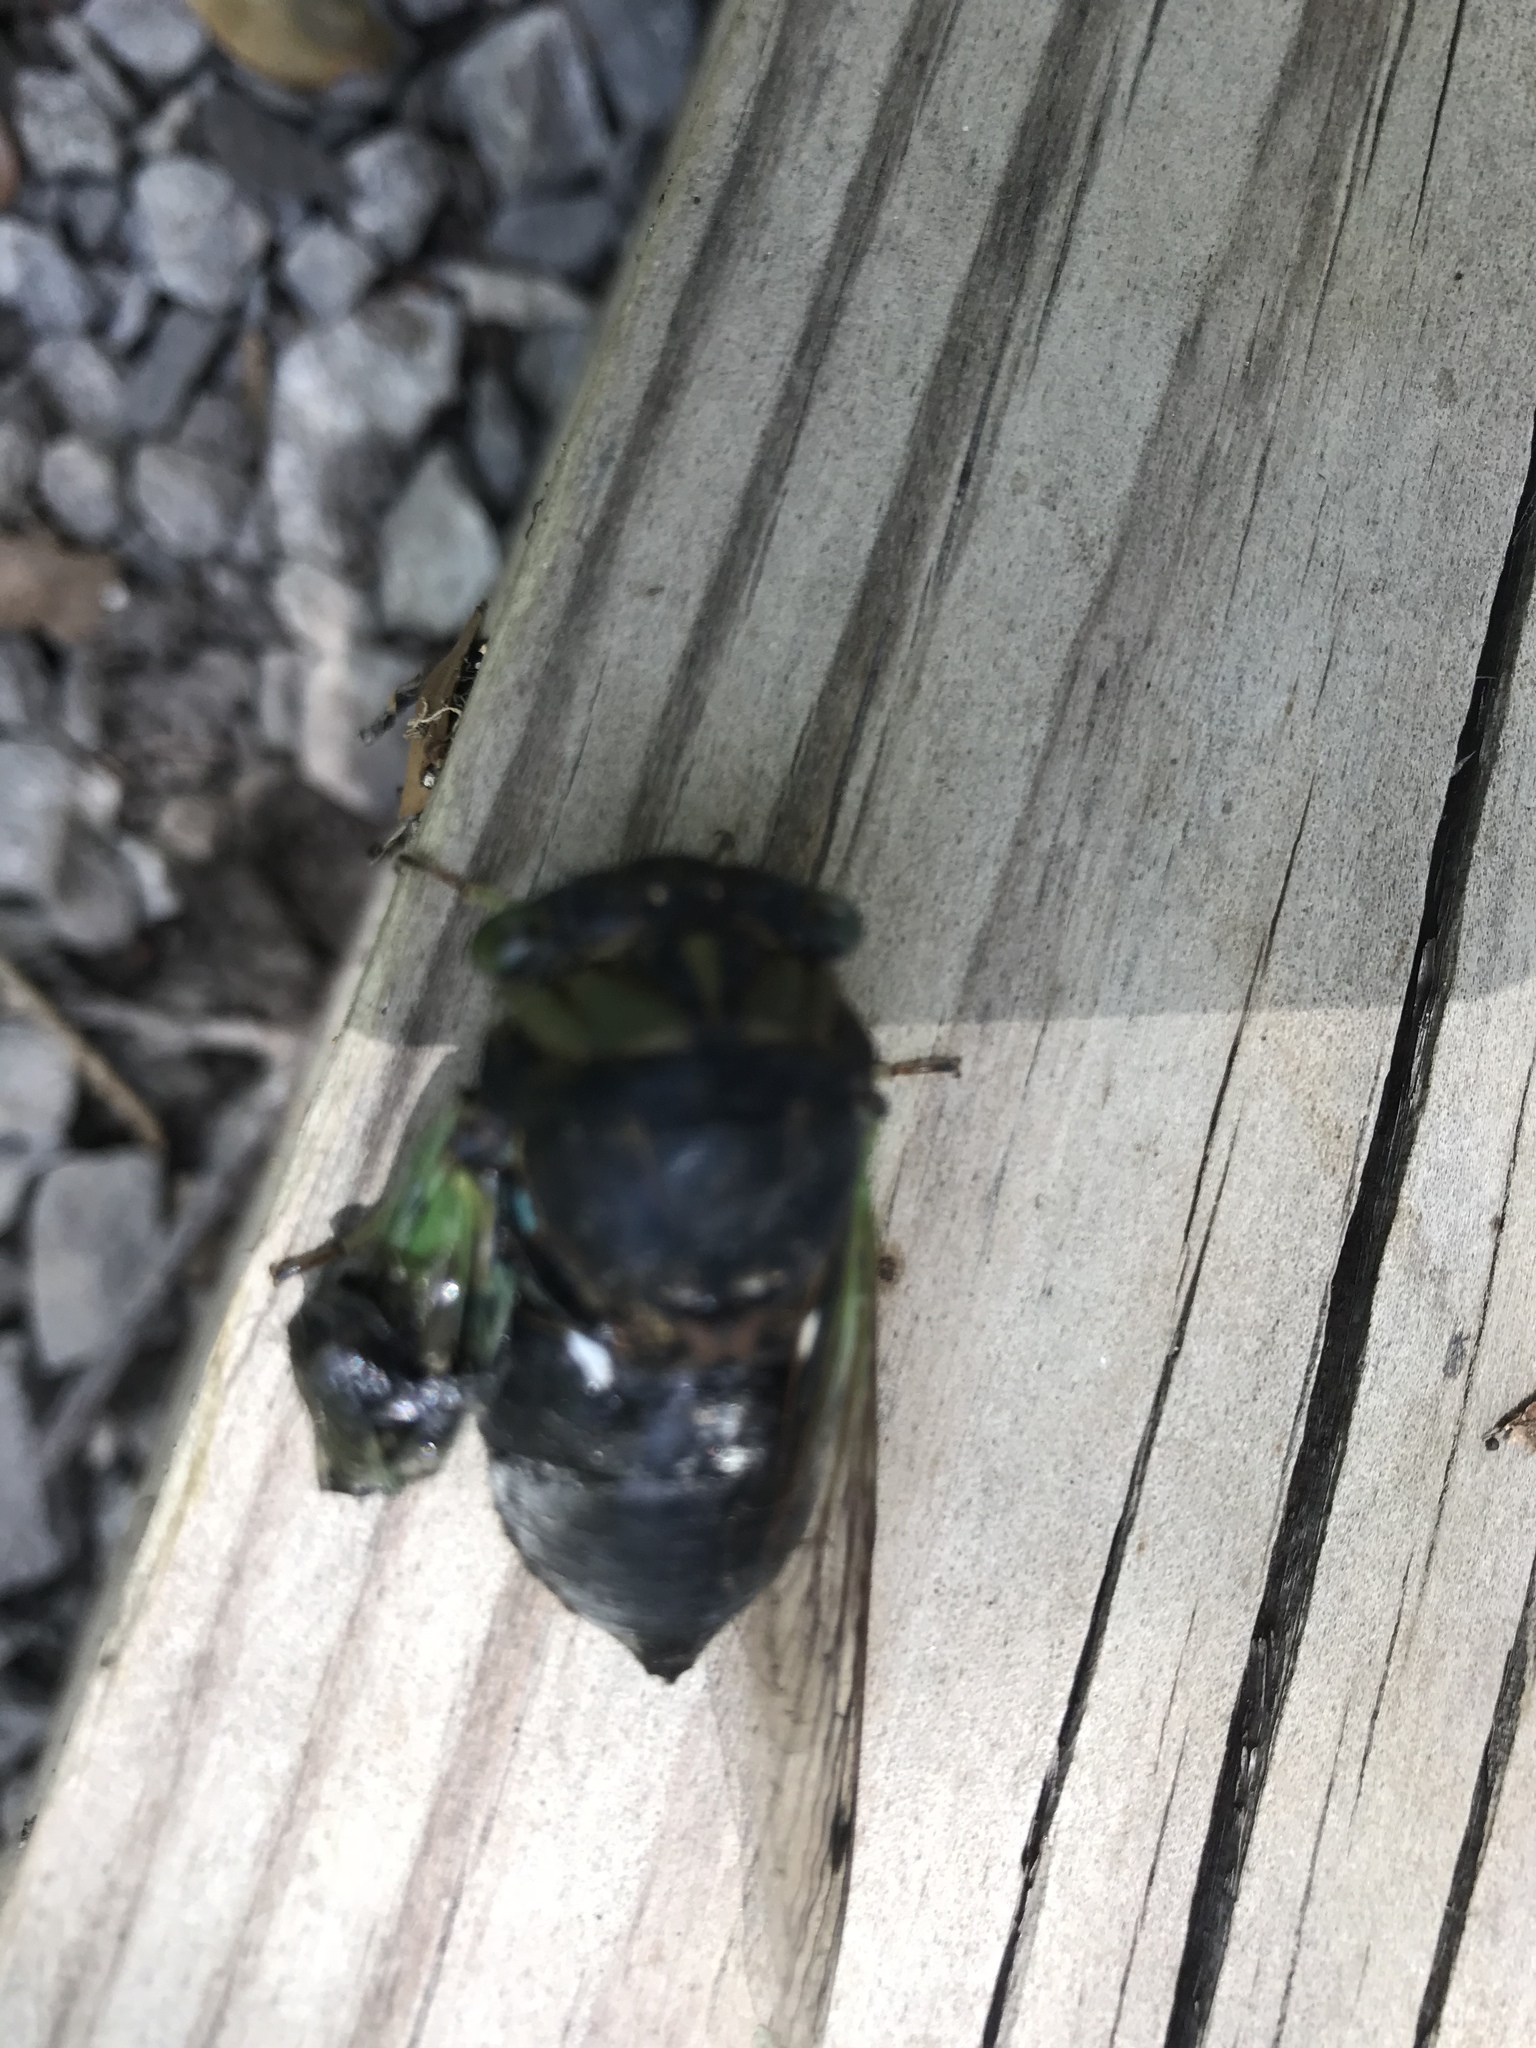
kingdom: Animalia
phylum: Arthropoda
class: Insecta
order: Hemiptera
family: Cicadidae
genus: Neotibicen
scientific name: Neotibicen tibicen
